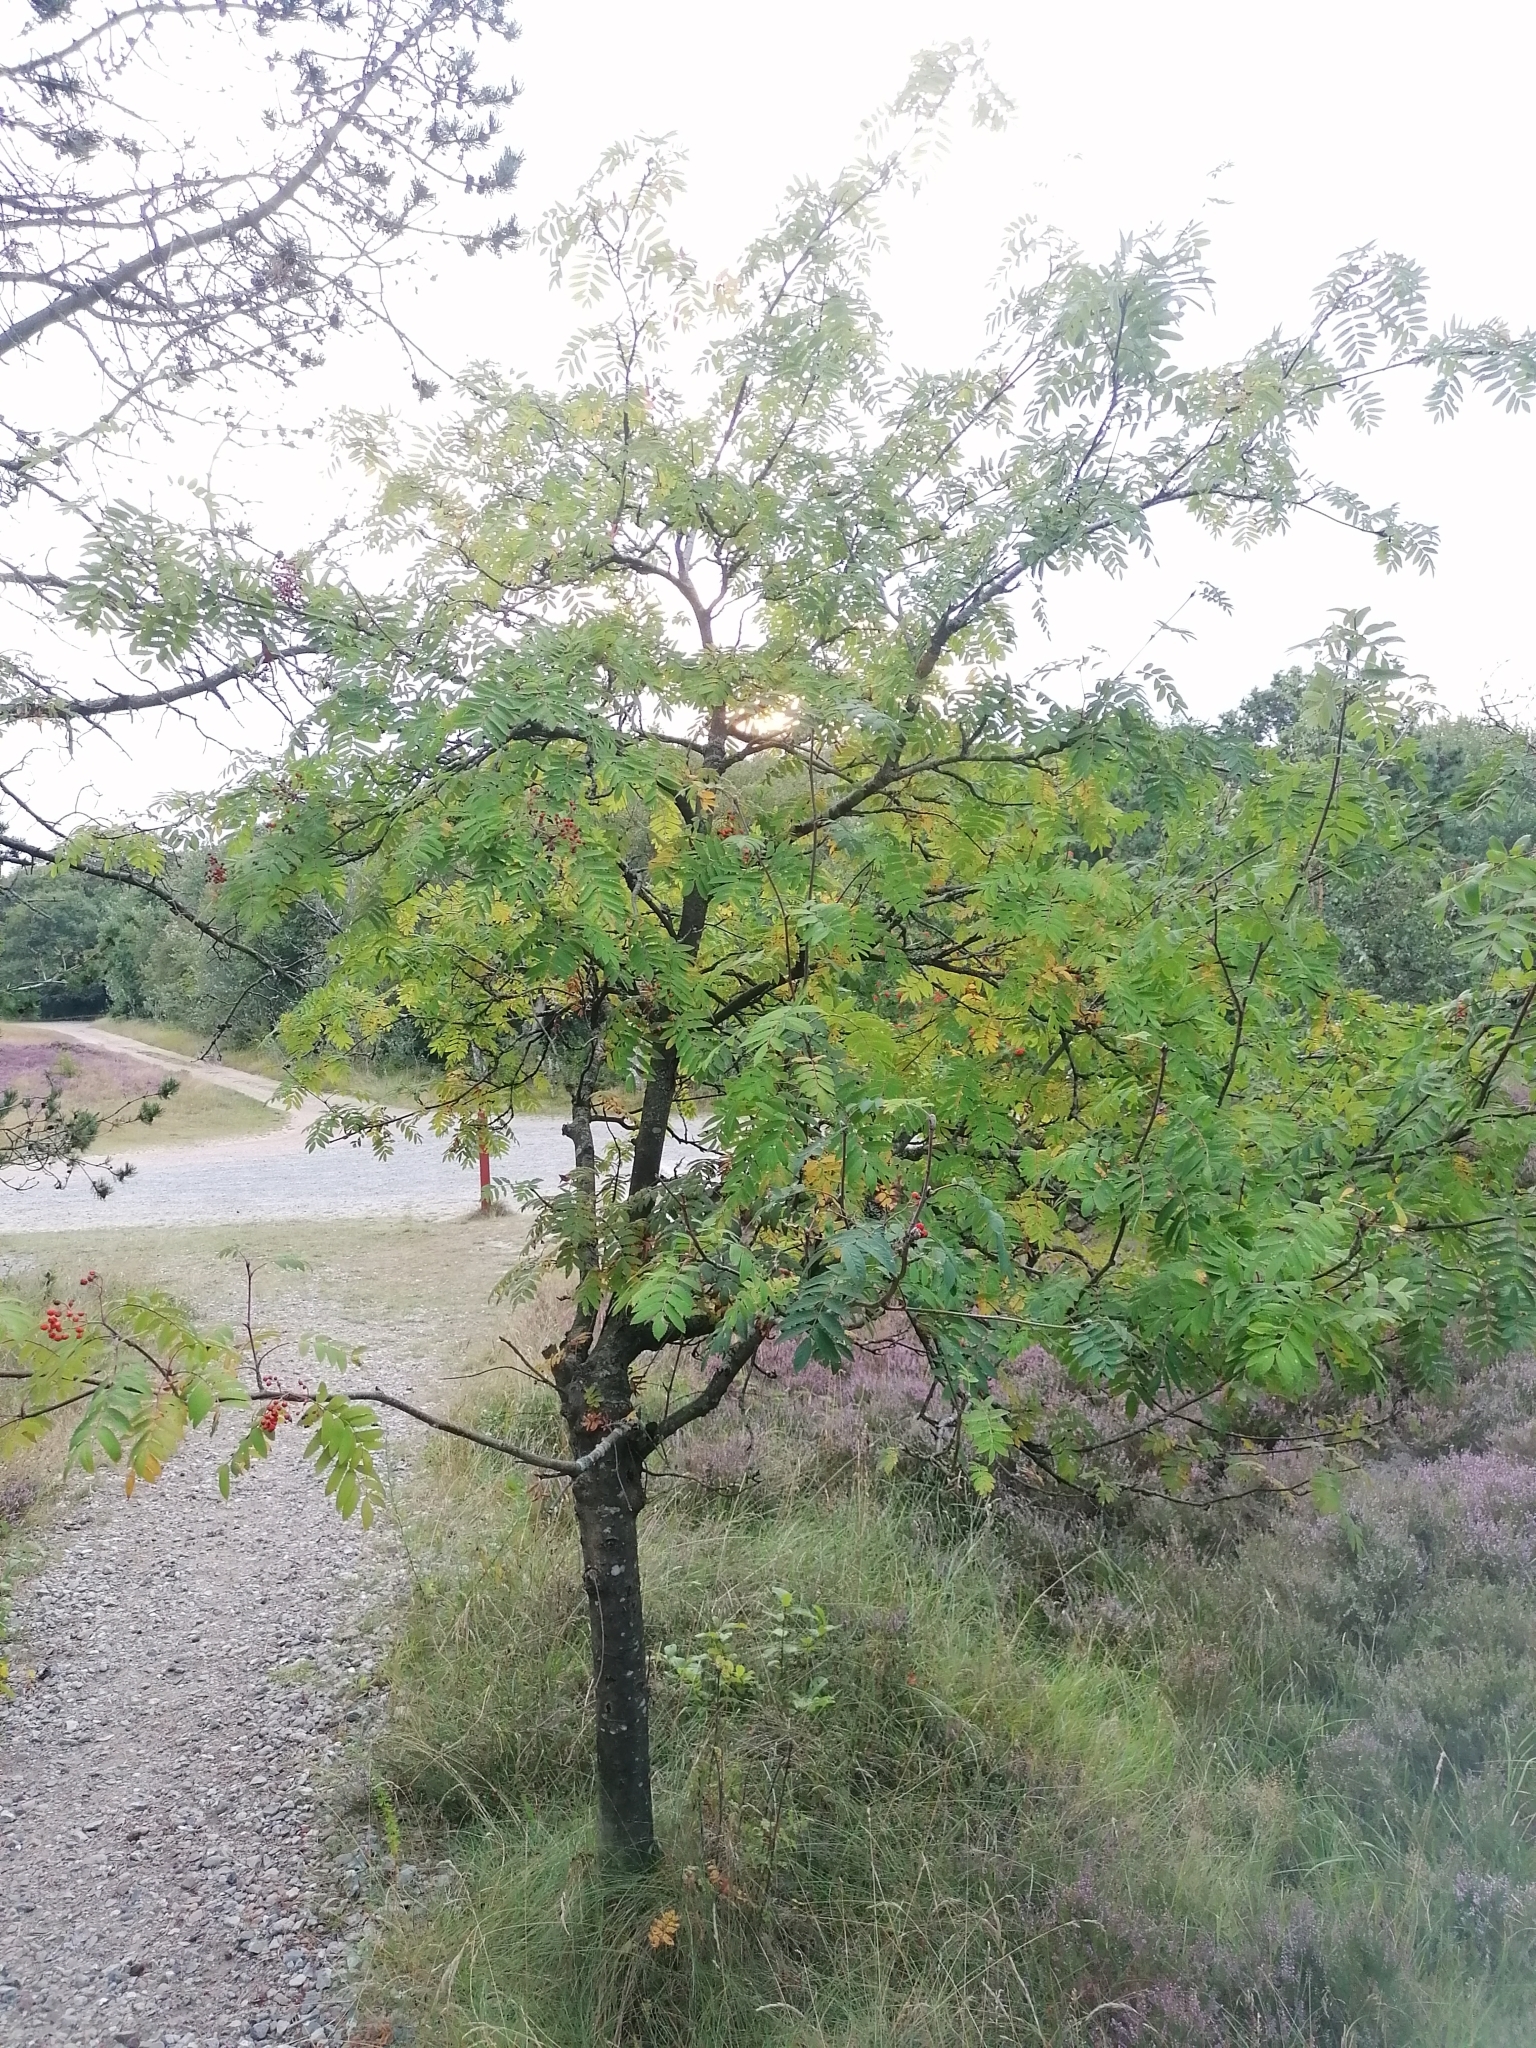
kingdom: Plantae
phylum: Tracheophyta
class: Magnoliopsida
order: Rosales
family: Rosaceae
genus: Sorbus
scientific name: Sorbus aucuparia
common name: Rowan
